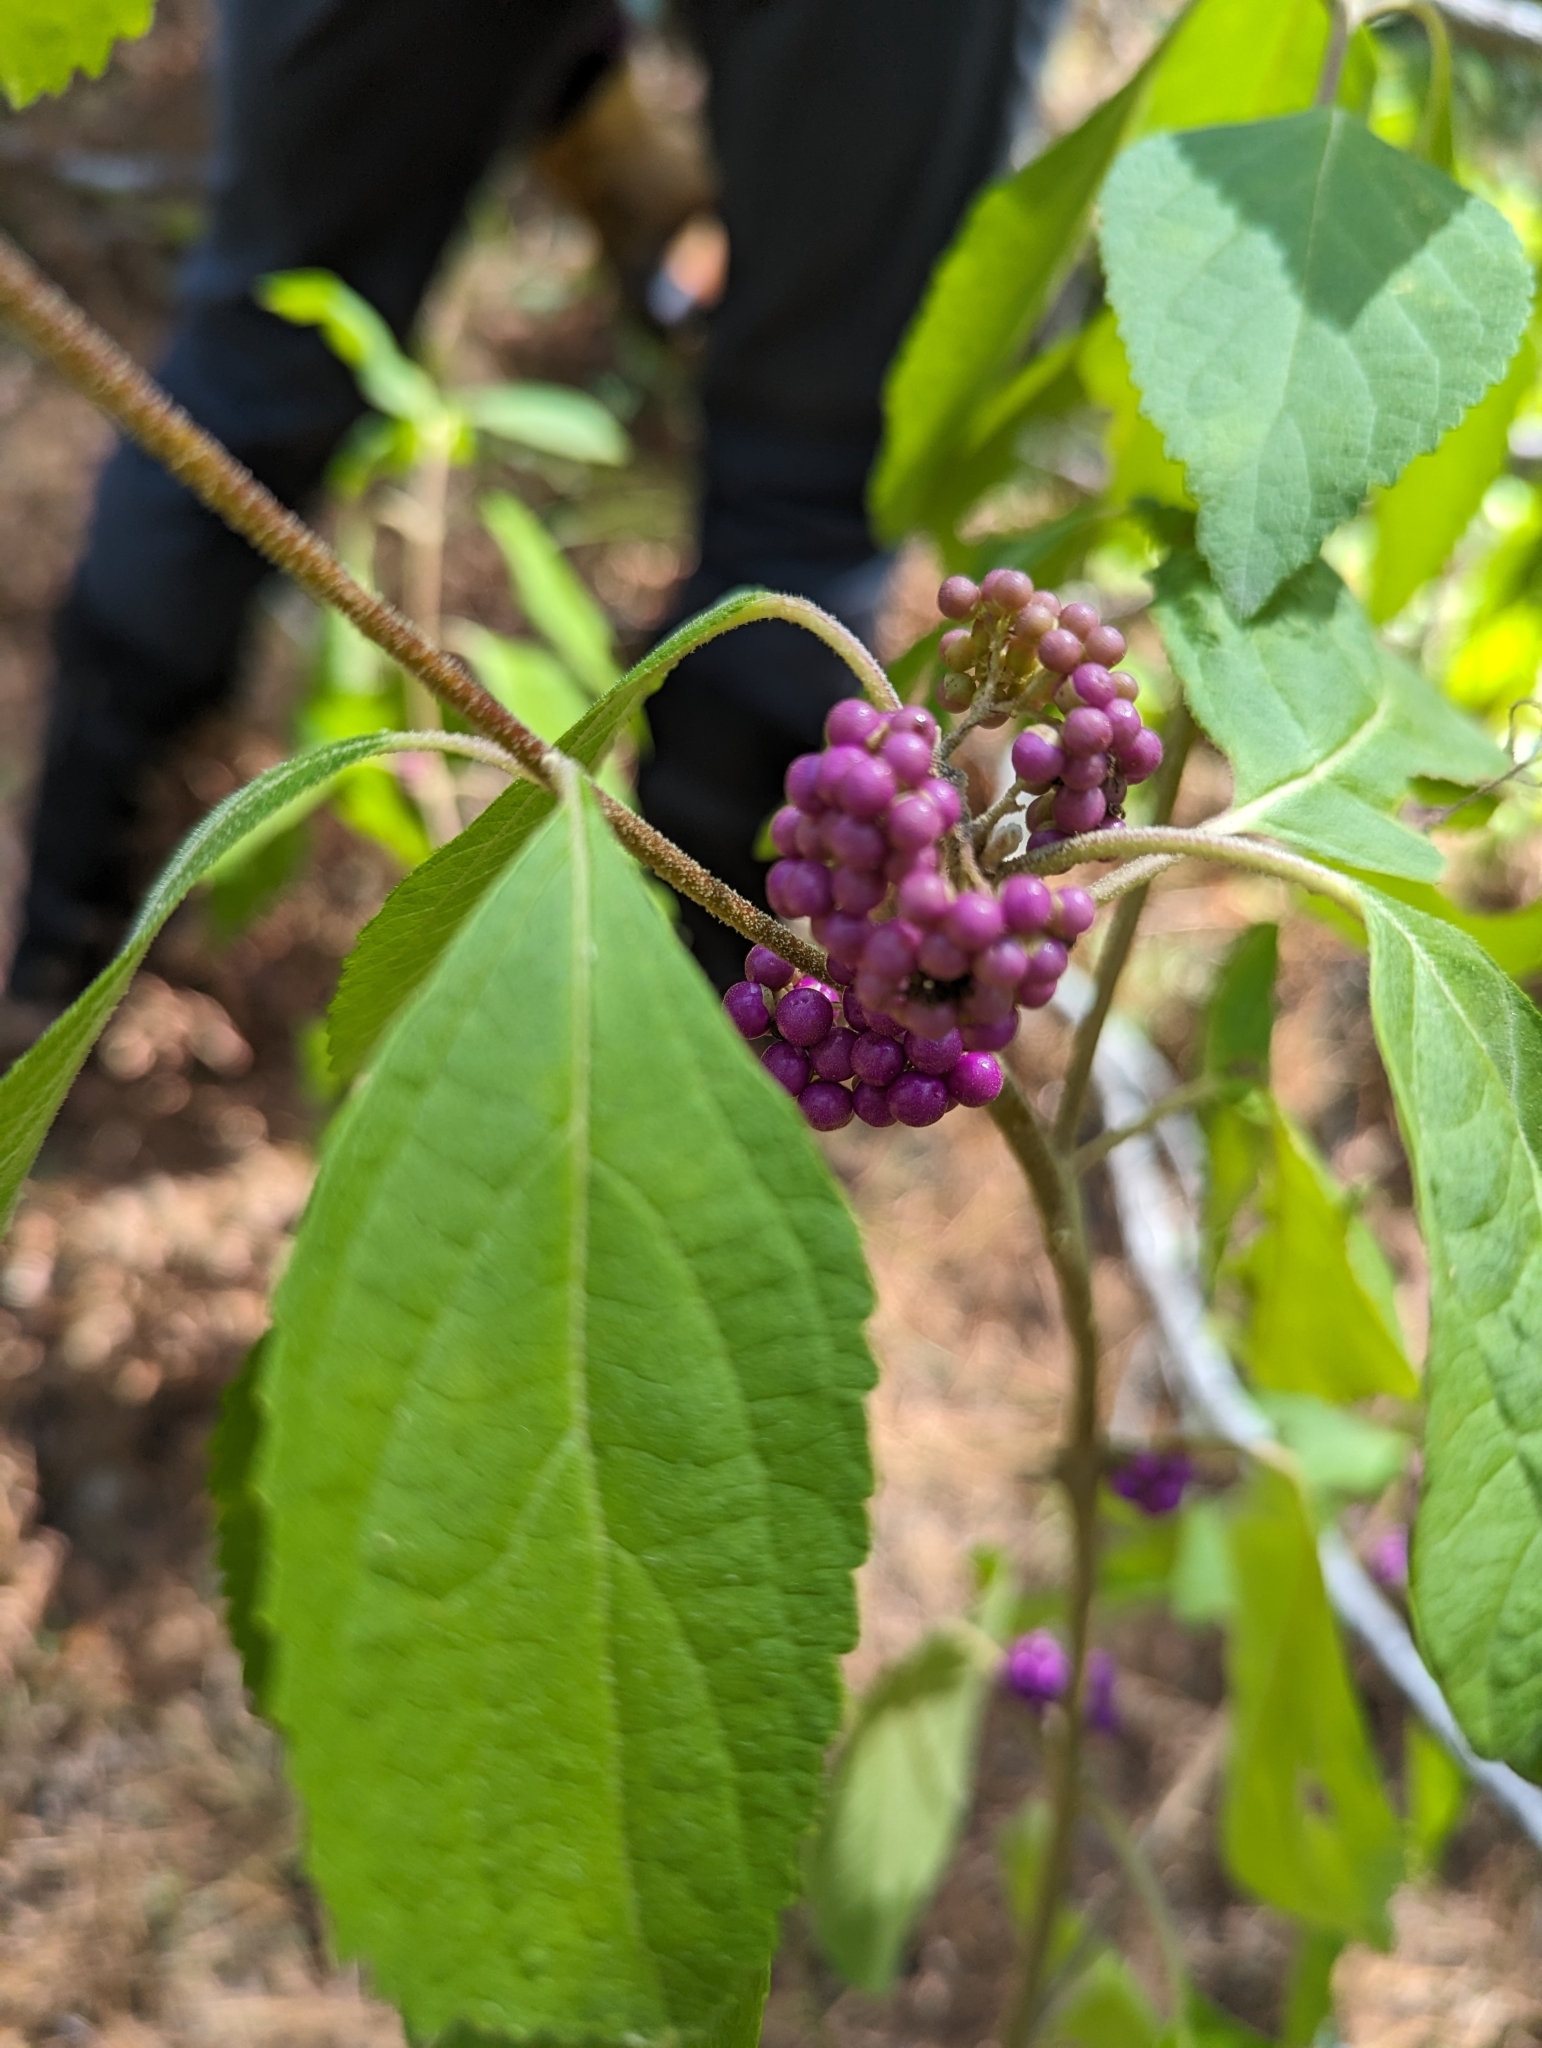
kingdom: Plantae
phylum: Tracheophyta
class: Magnoliopsida
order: Lamiales
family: Lamiaceae
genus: Callicarpa
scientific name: Callicarpa americana
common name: American beautyberry
